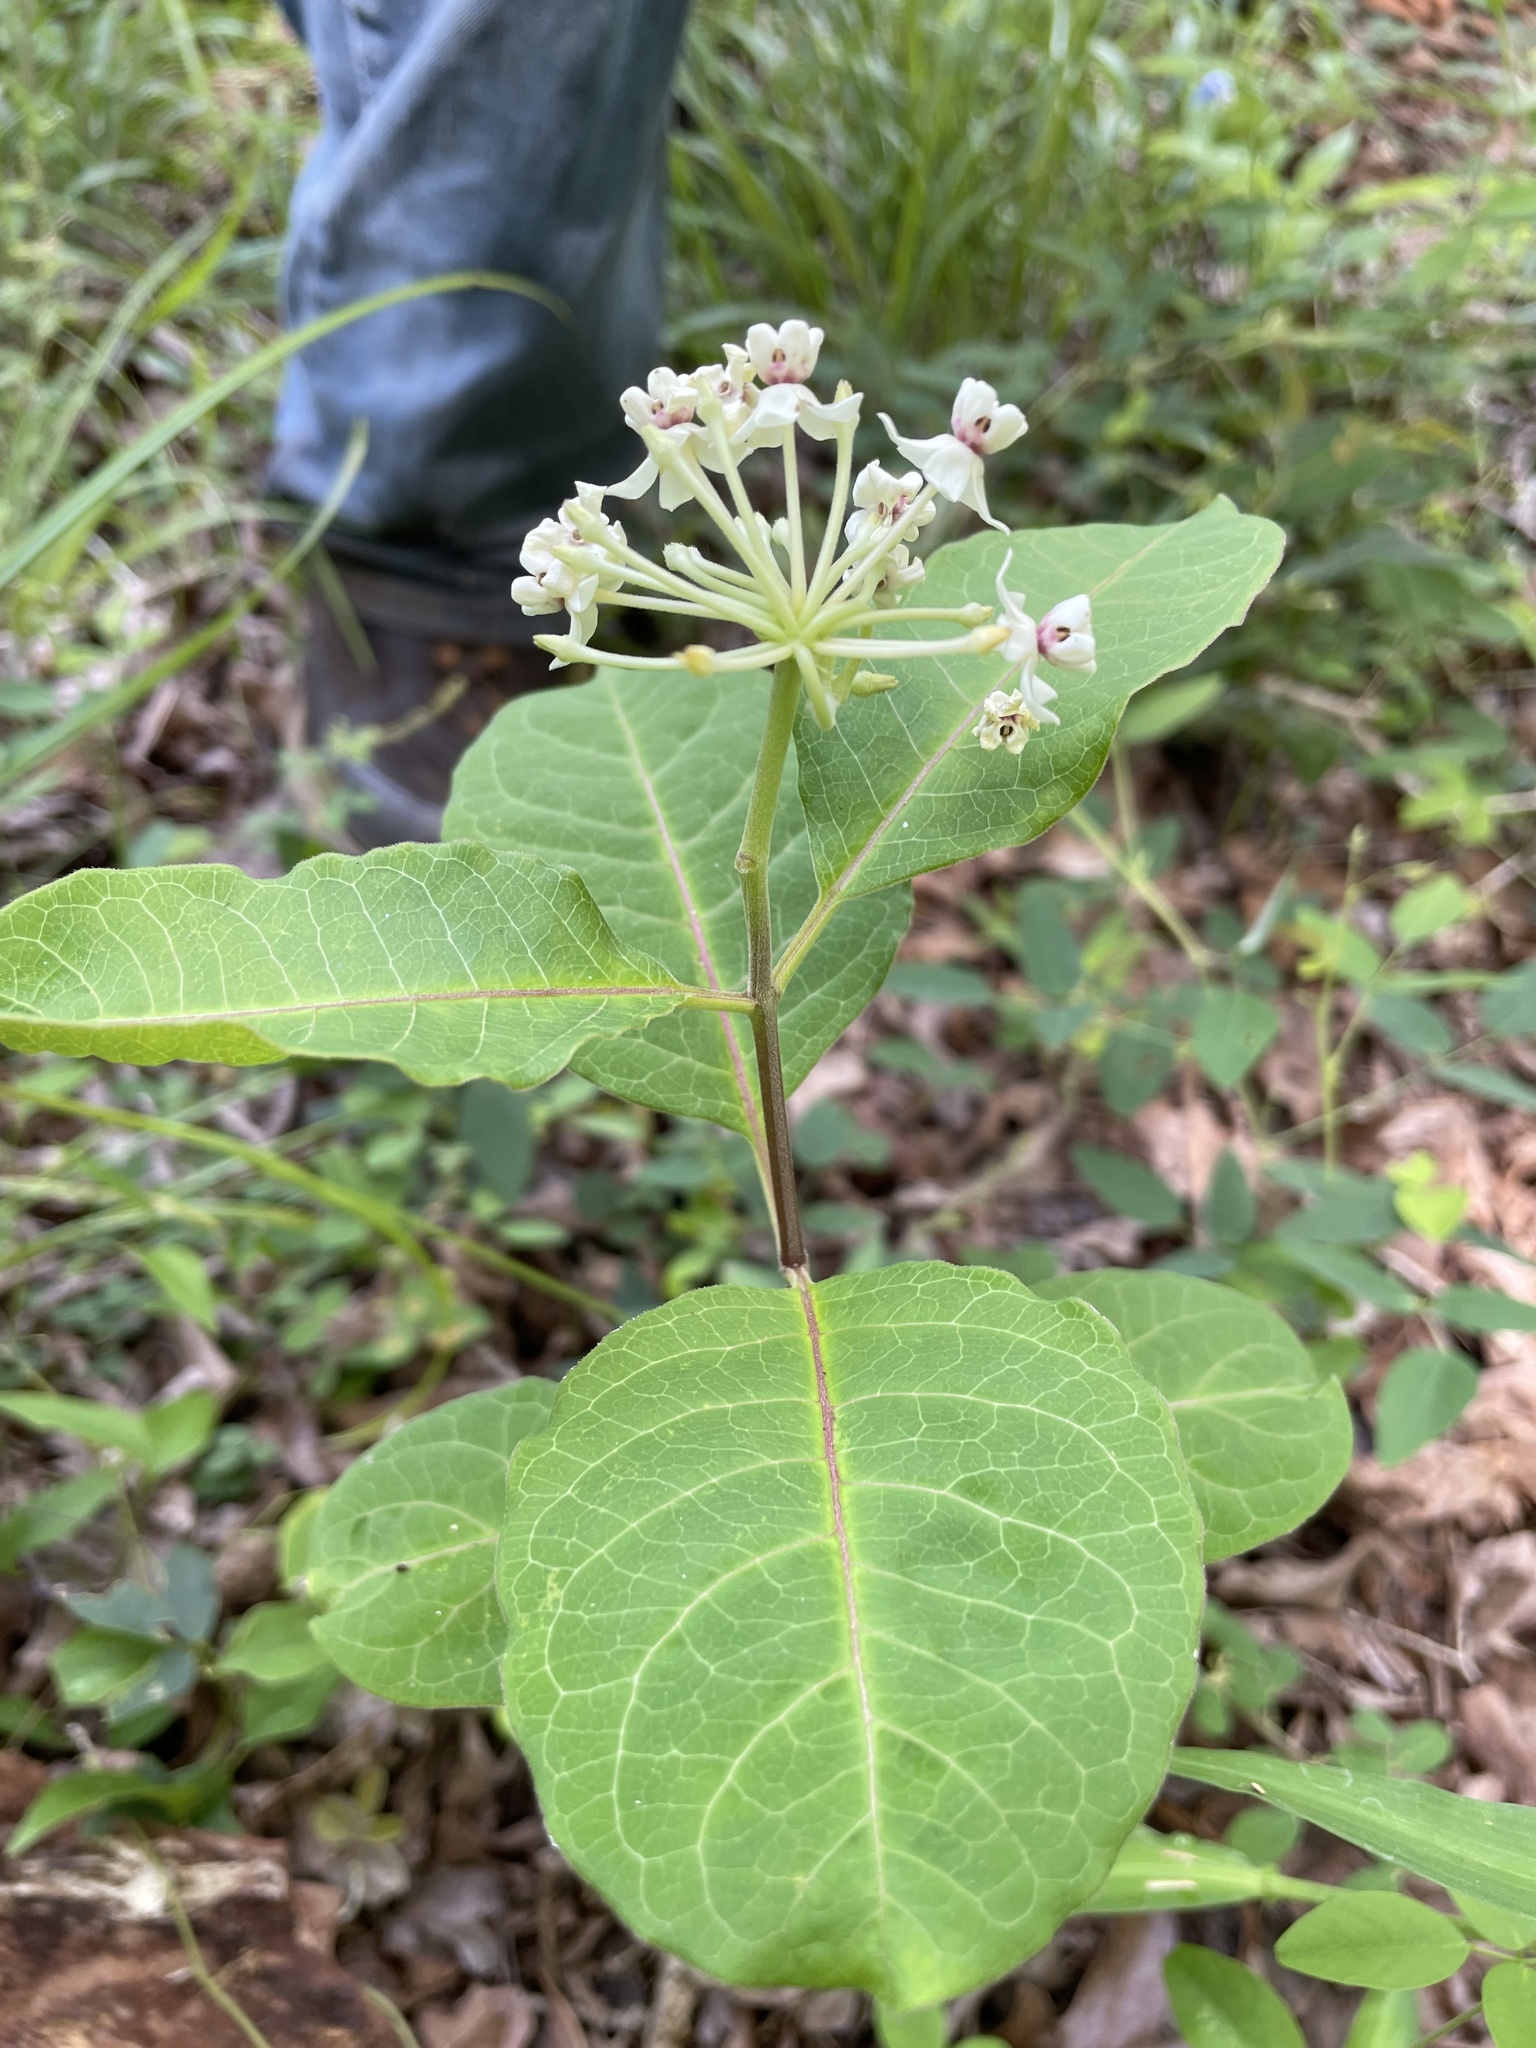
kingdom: Plantae
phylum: Tracheophyta
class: Magnoliopsida
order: Gentianales
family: Apocynaceae
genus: Asclepias
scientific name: Asclepias variegata
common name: Variegated milkweed
